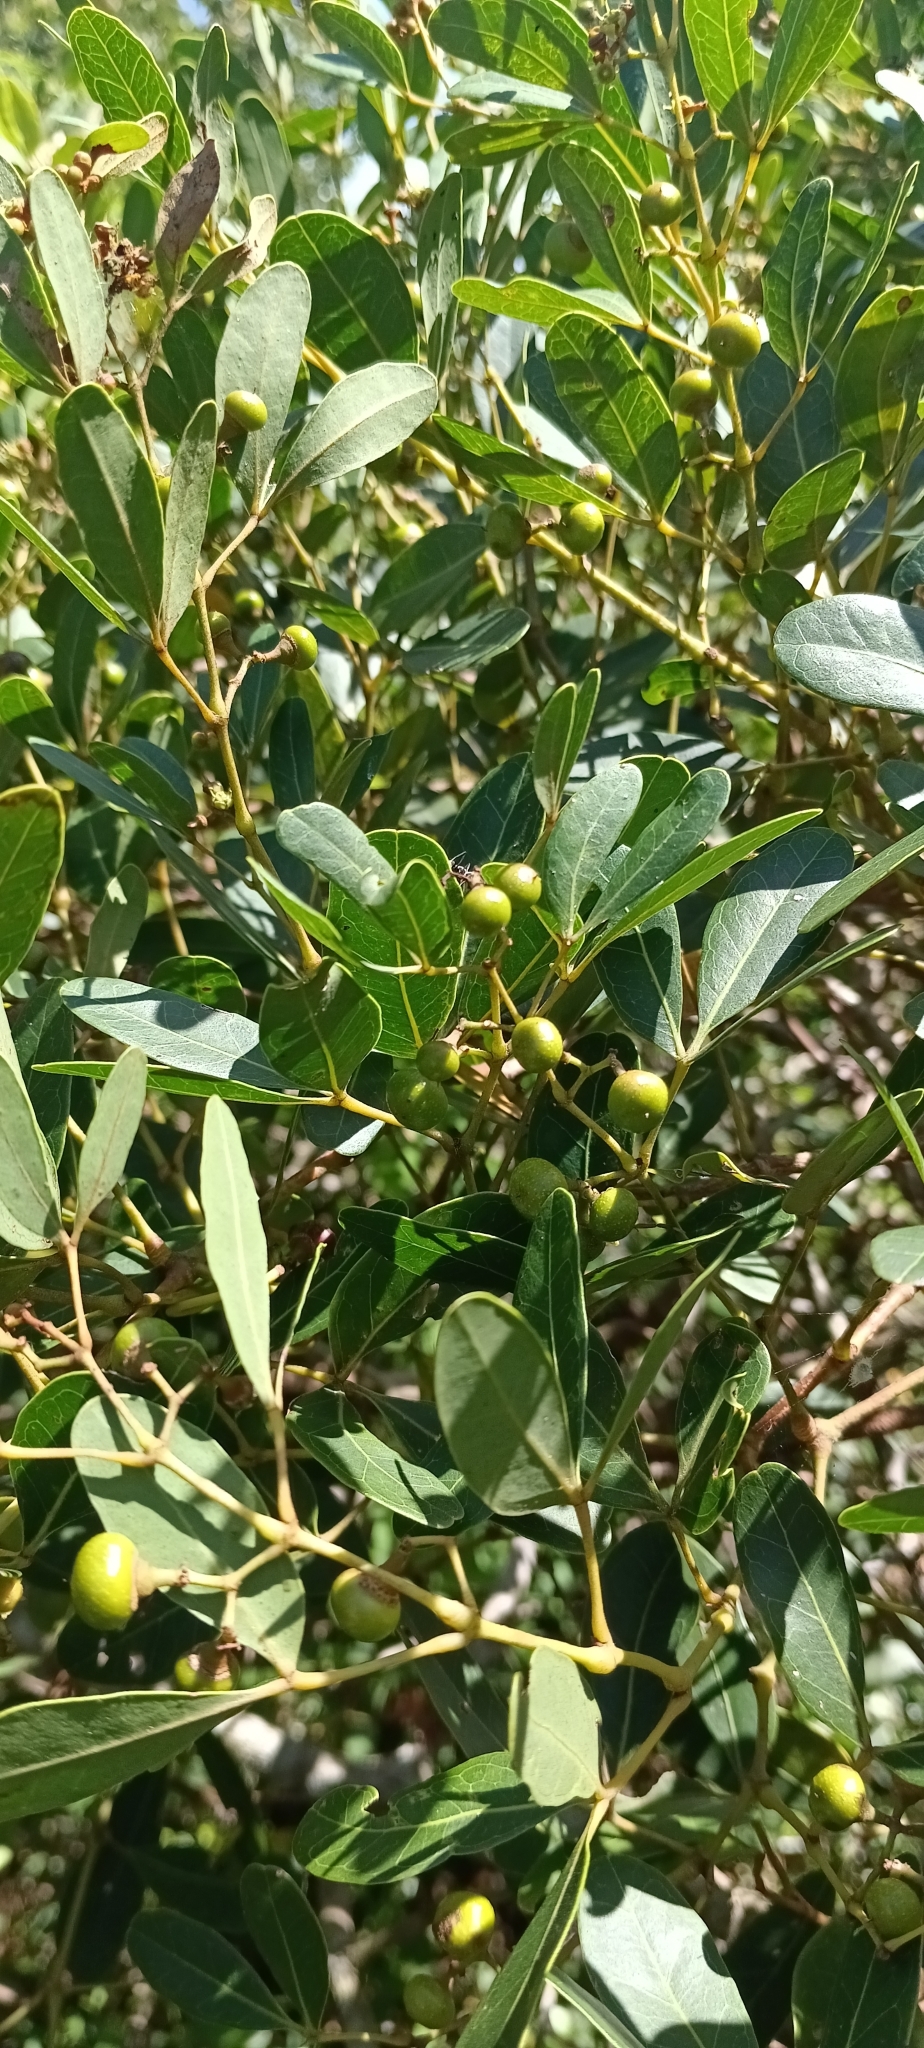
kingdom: Plantae
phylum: Tracheophyta
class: Magnoliopsida
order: Vitales
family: Vitaceae
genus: Rhoicissus
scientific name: Rhoicissus digitata
